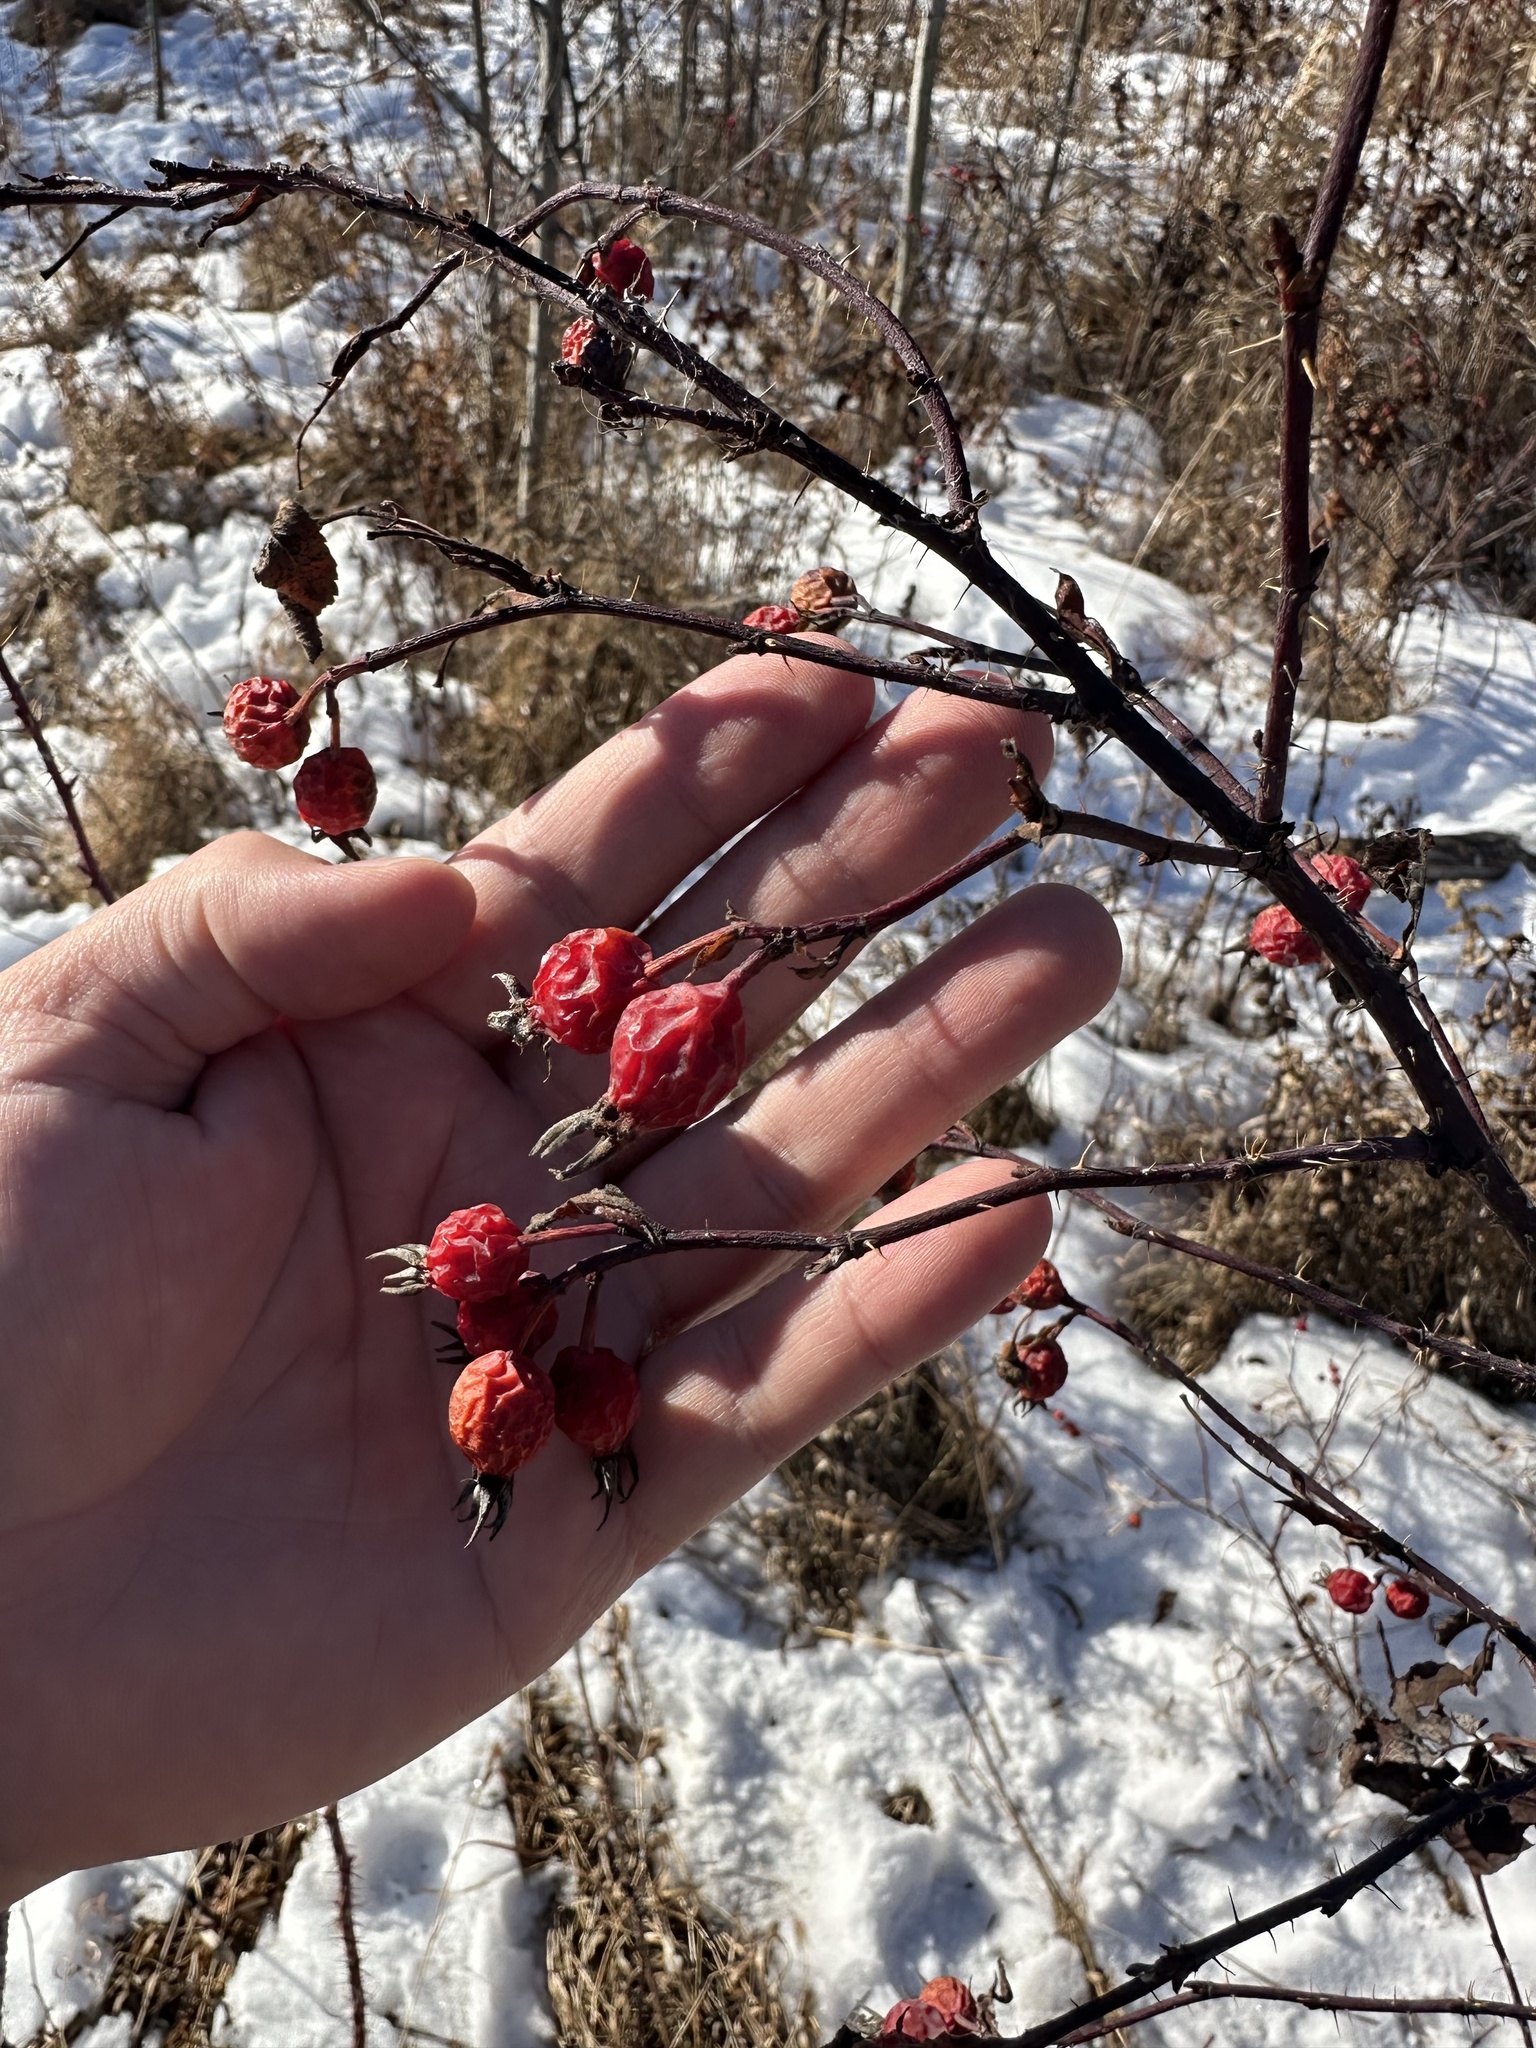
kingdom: Plantae
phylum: Tracheophyta
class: Magnoliopsida
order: Rosales
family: Rosaceae
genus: Rosa
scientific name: Rosa woodsii
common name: Woods's rose
